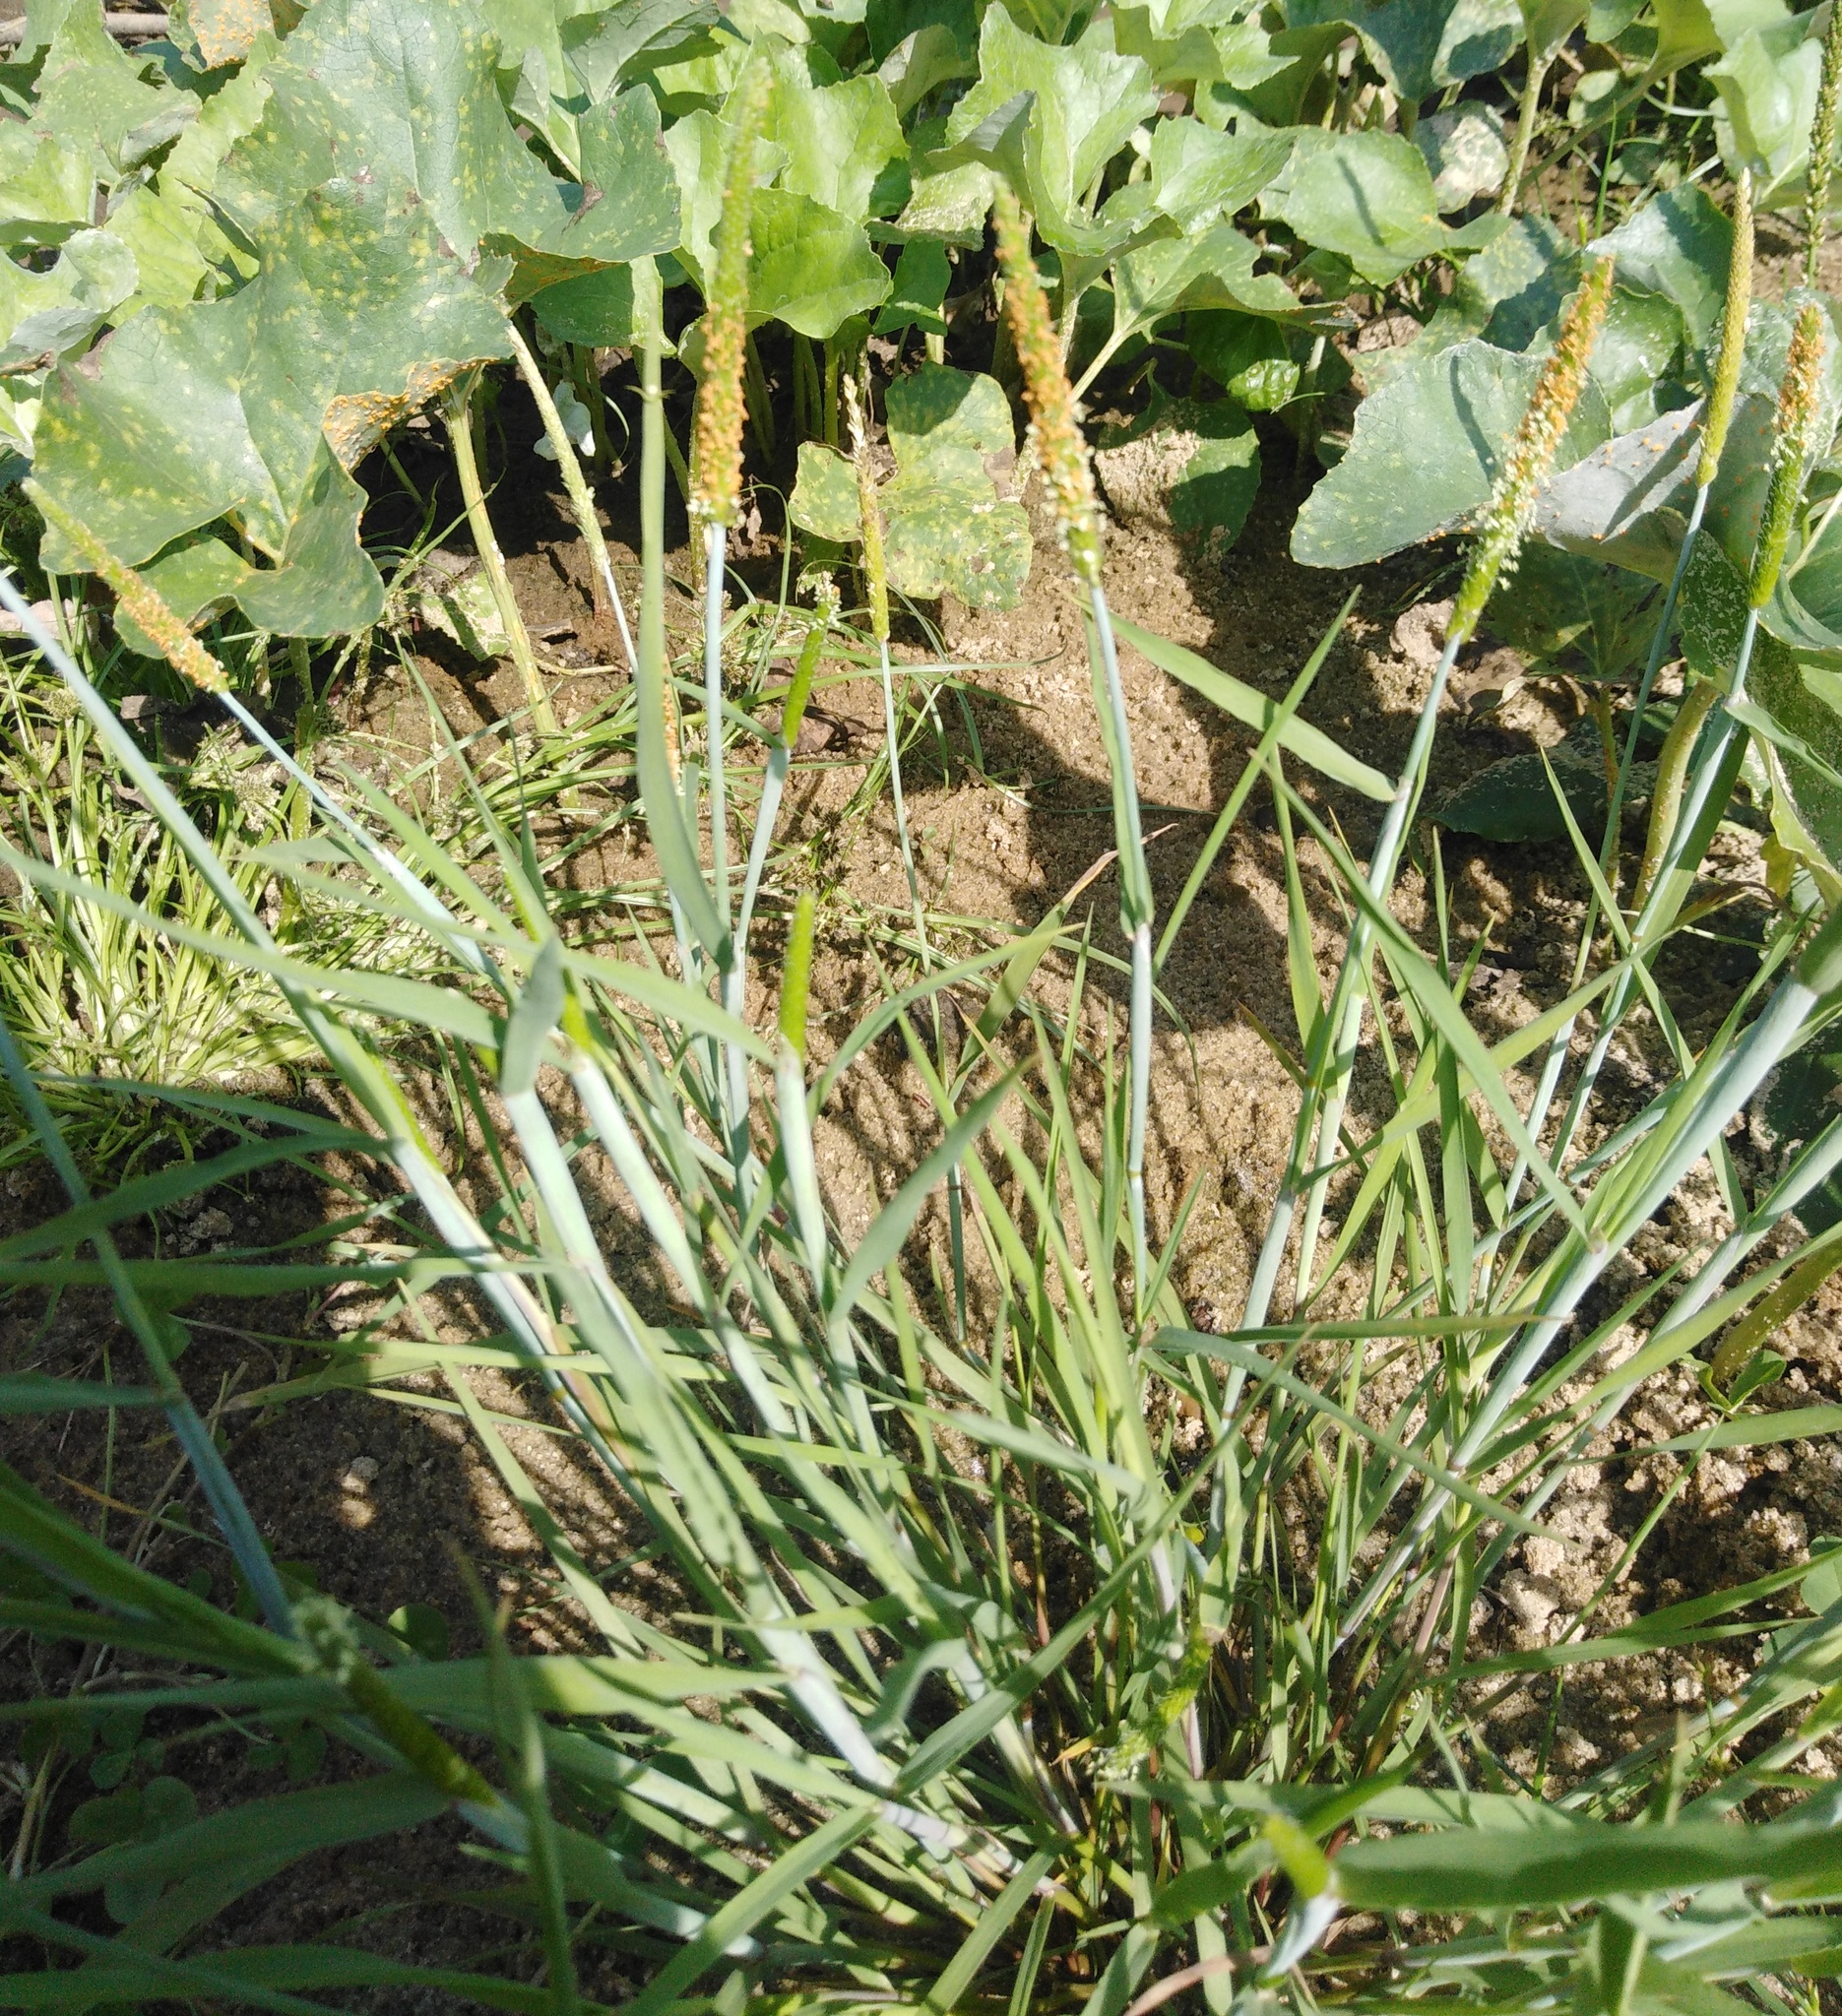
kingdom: Plantae
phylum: Tracheophyta
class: Liliopsida
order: Poales
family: Poaceae
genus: Alopecurus
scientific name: Alopecurus aequalis
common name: Orange foxtail
